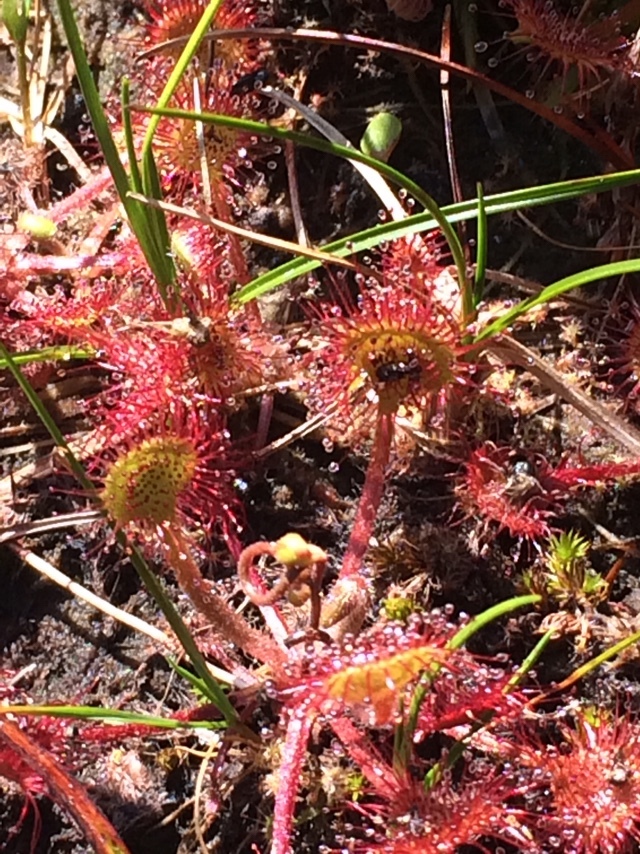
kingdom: Plantae
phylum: Tracheophyta
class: Magnoliopsida
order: Caryophyllales
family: Droseraceae
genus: Drosera
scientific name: Drosera rotundifolia
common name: Round-leaved sundew
